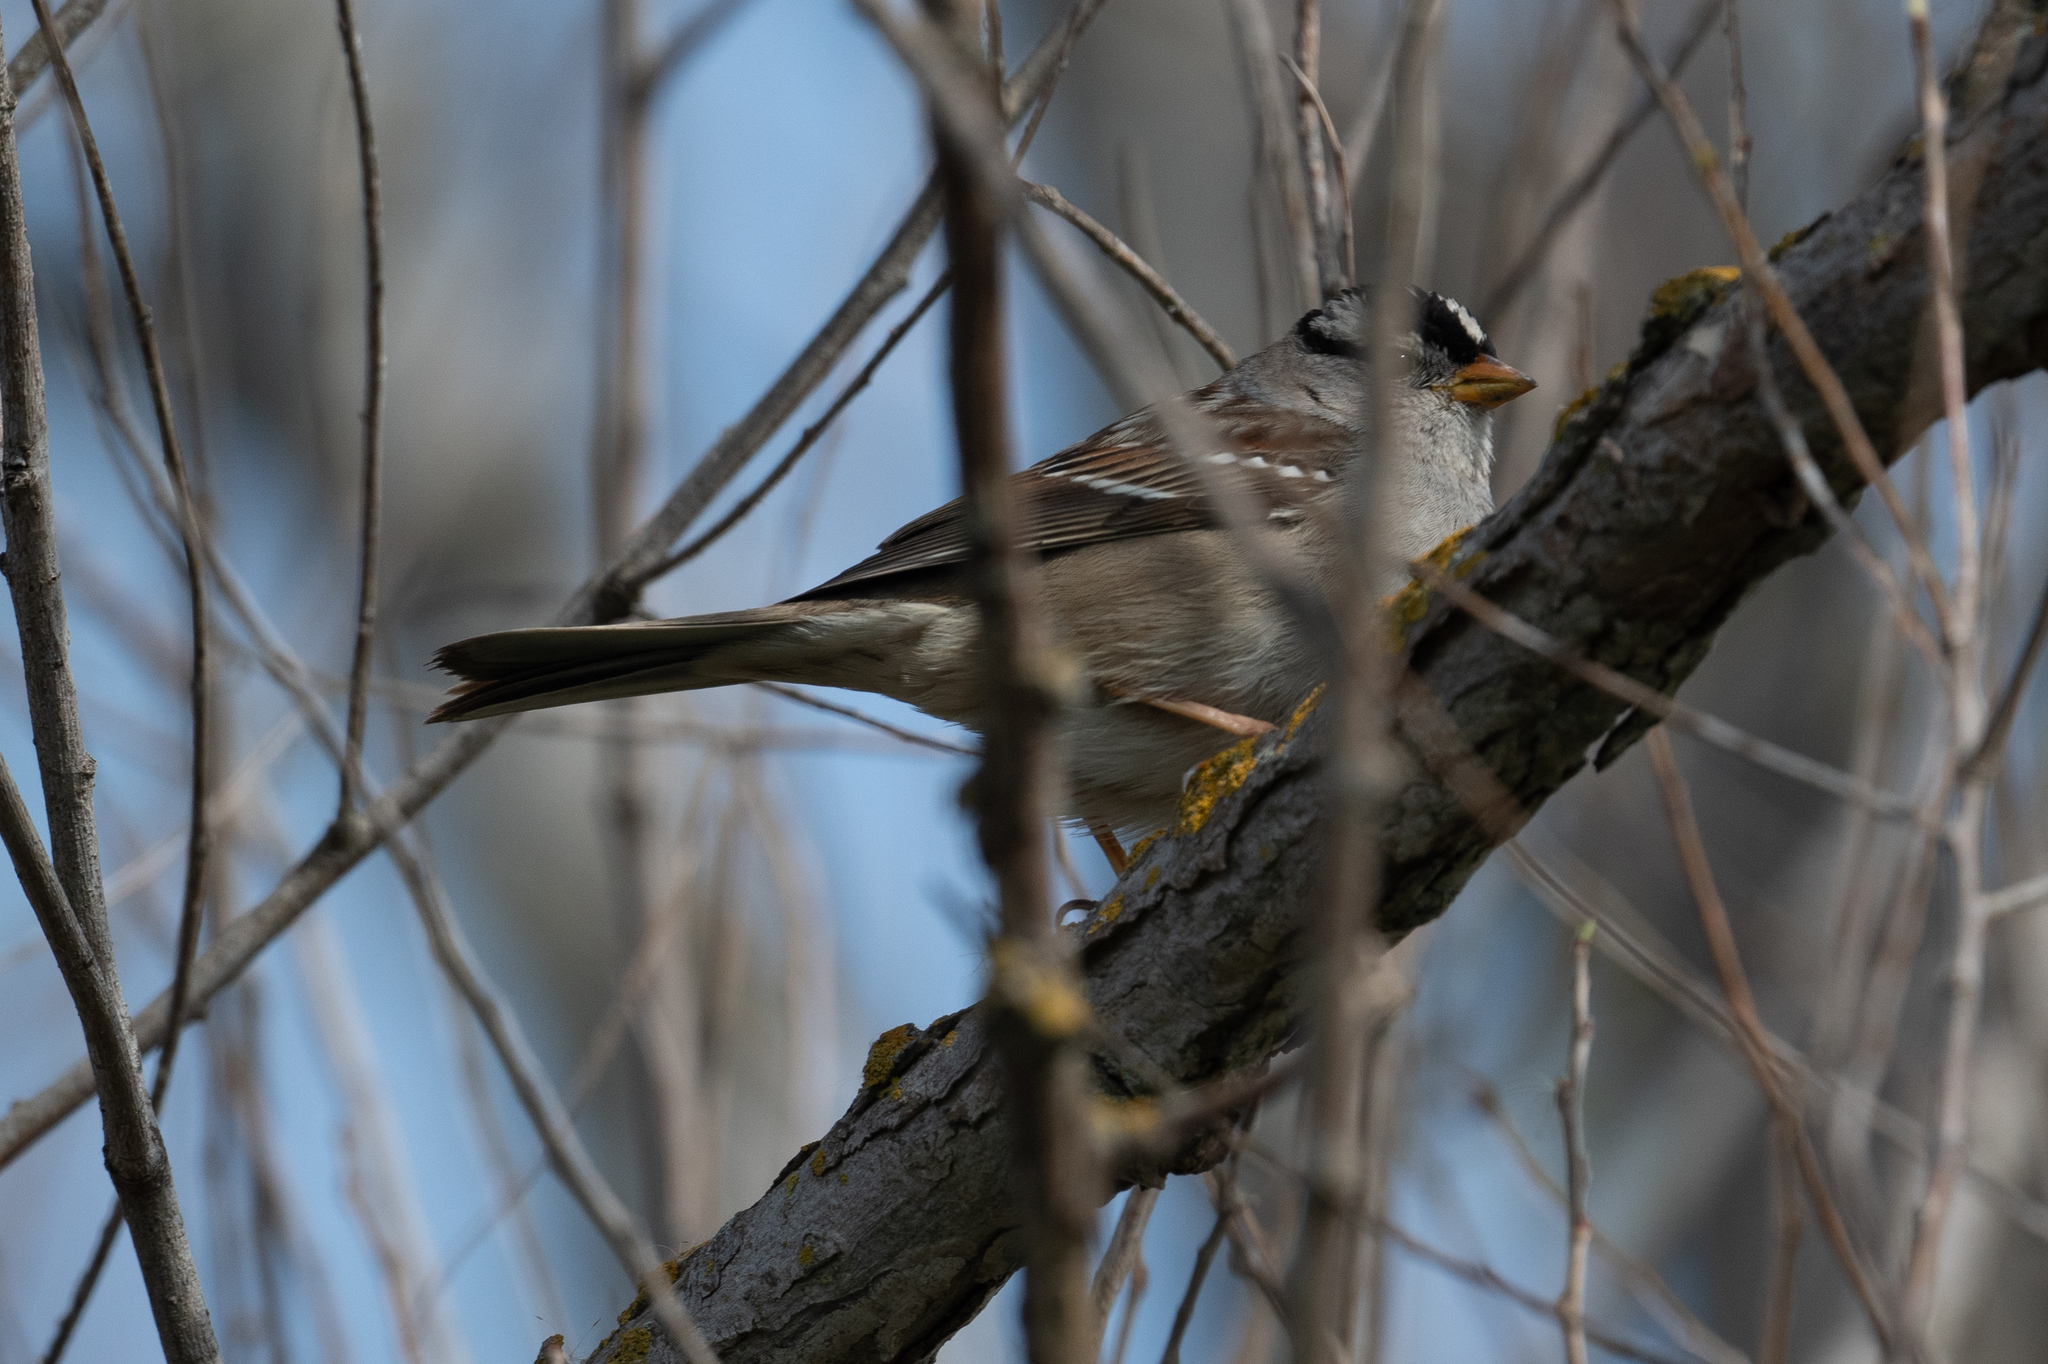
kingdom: Animalia
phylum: Chordata
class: Aves
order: Passeriformes
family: Passerellidae
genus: Zonotrichia
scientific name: Zonotrichia leucophrys
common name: White-crowned sparrow
